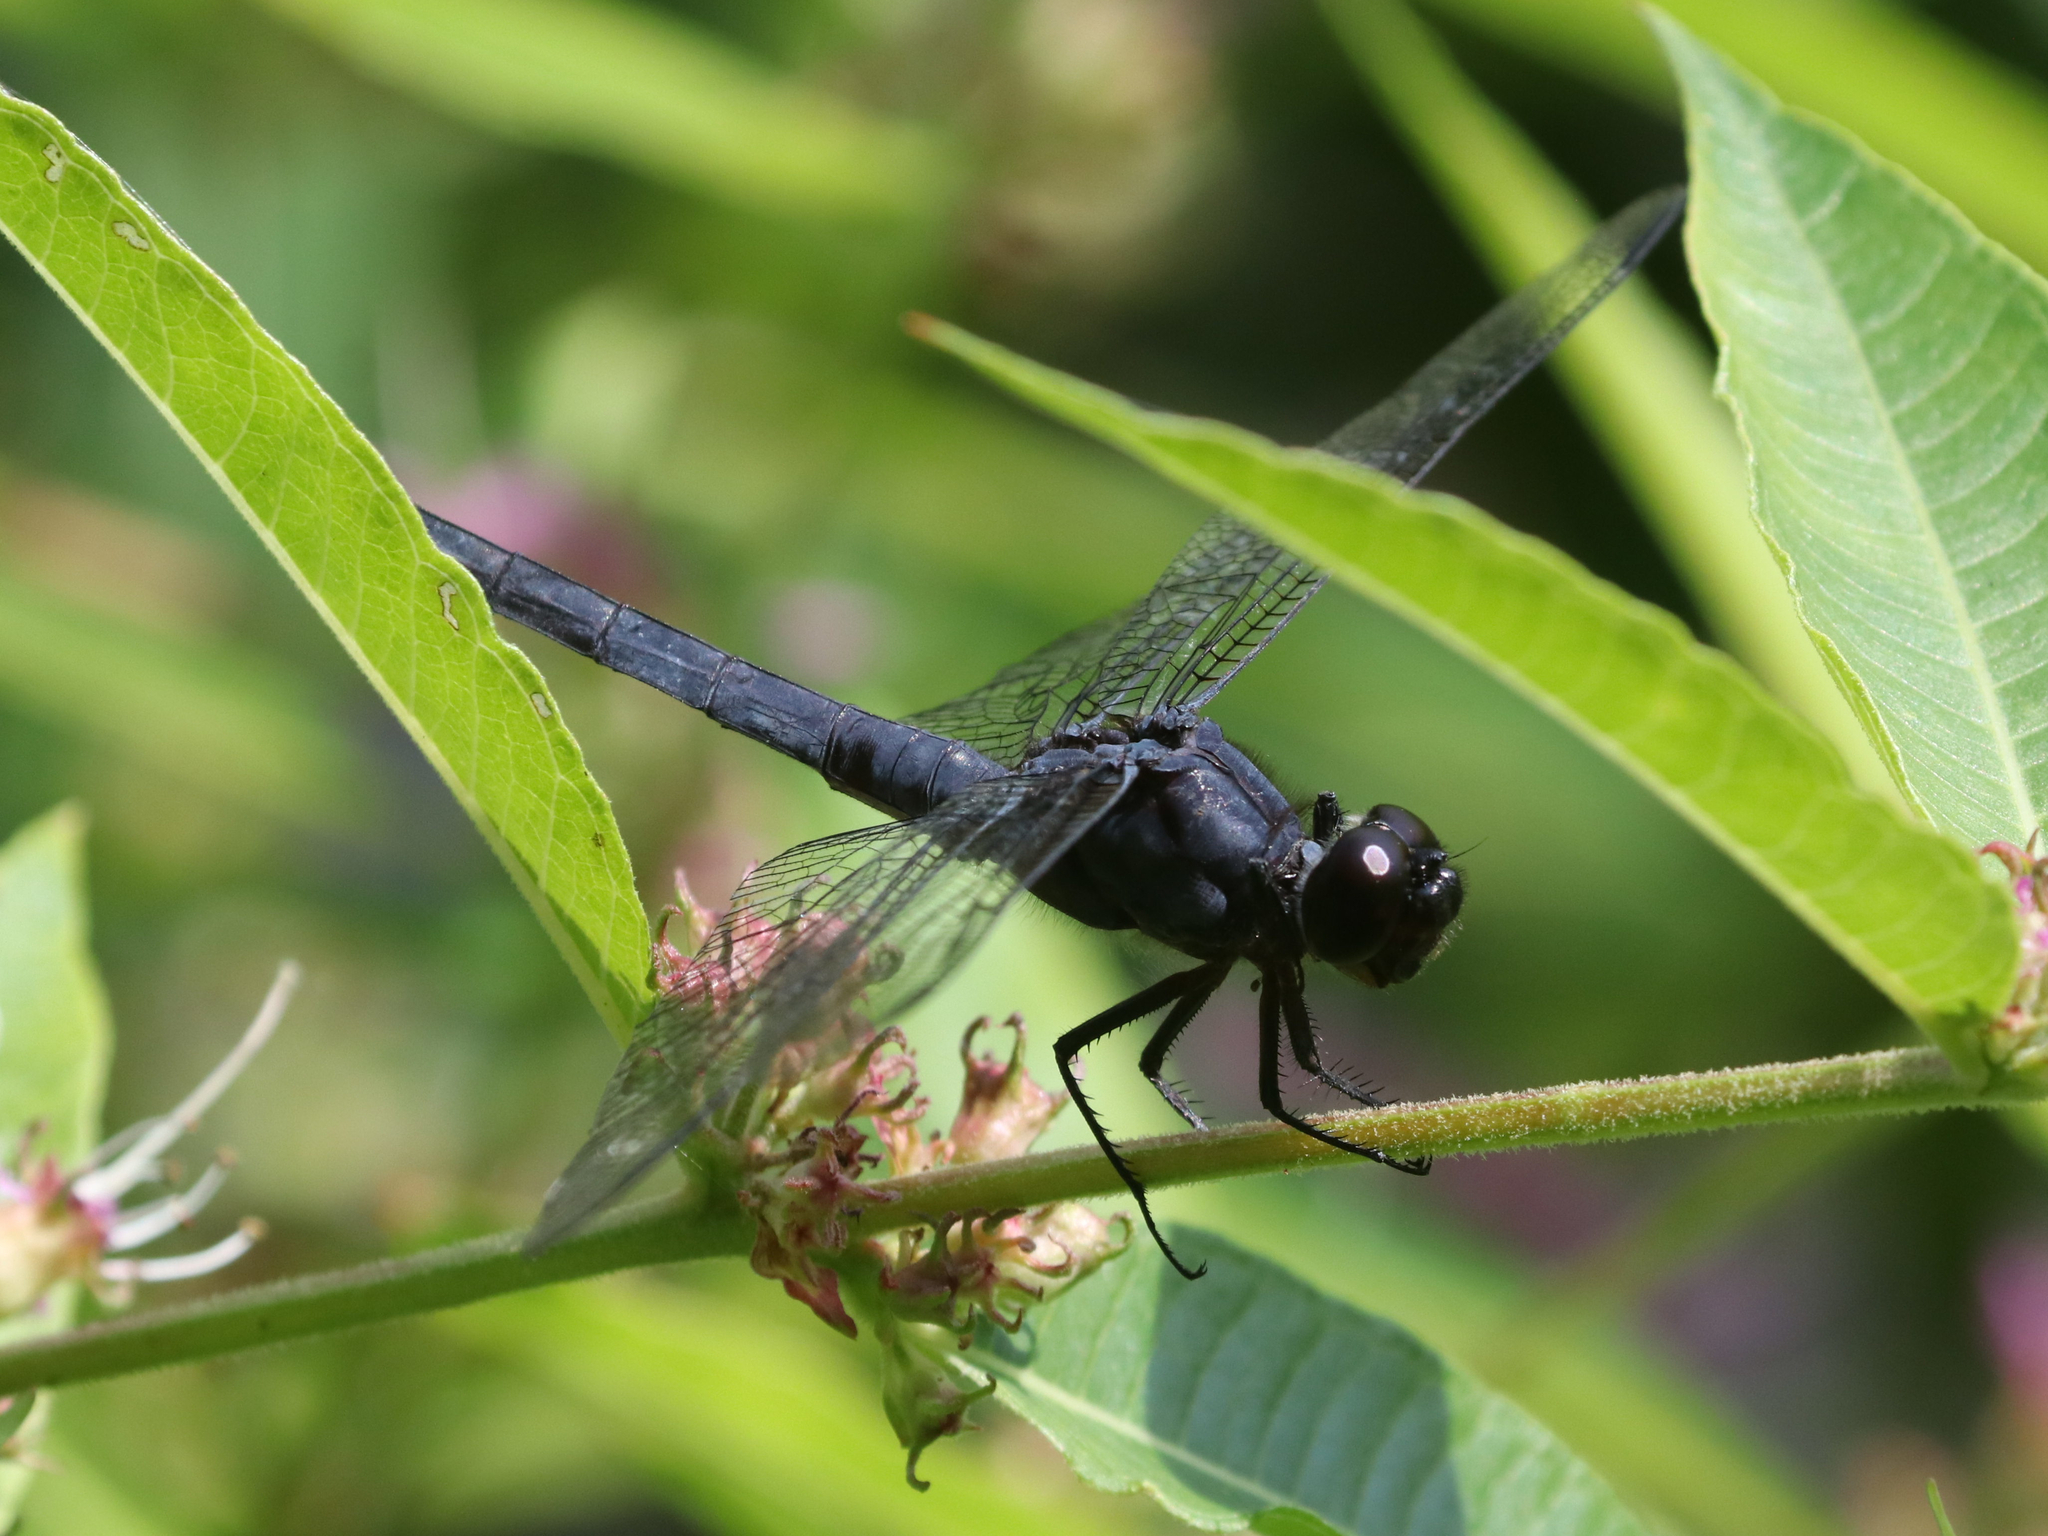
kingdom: Animalia
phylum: Arthropoda
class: Insecta
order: Odonata
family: Libellulidae
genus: Libellula
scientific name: Libellula incesta
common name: Slaty skimmer
